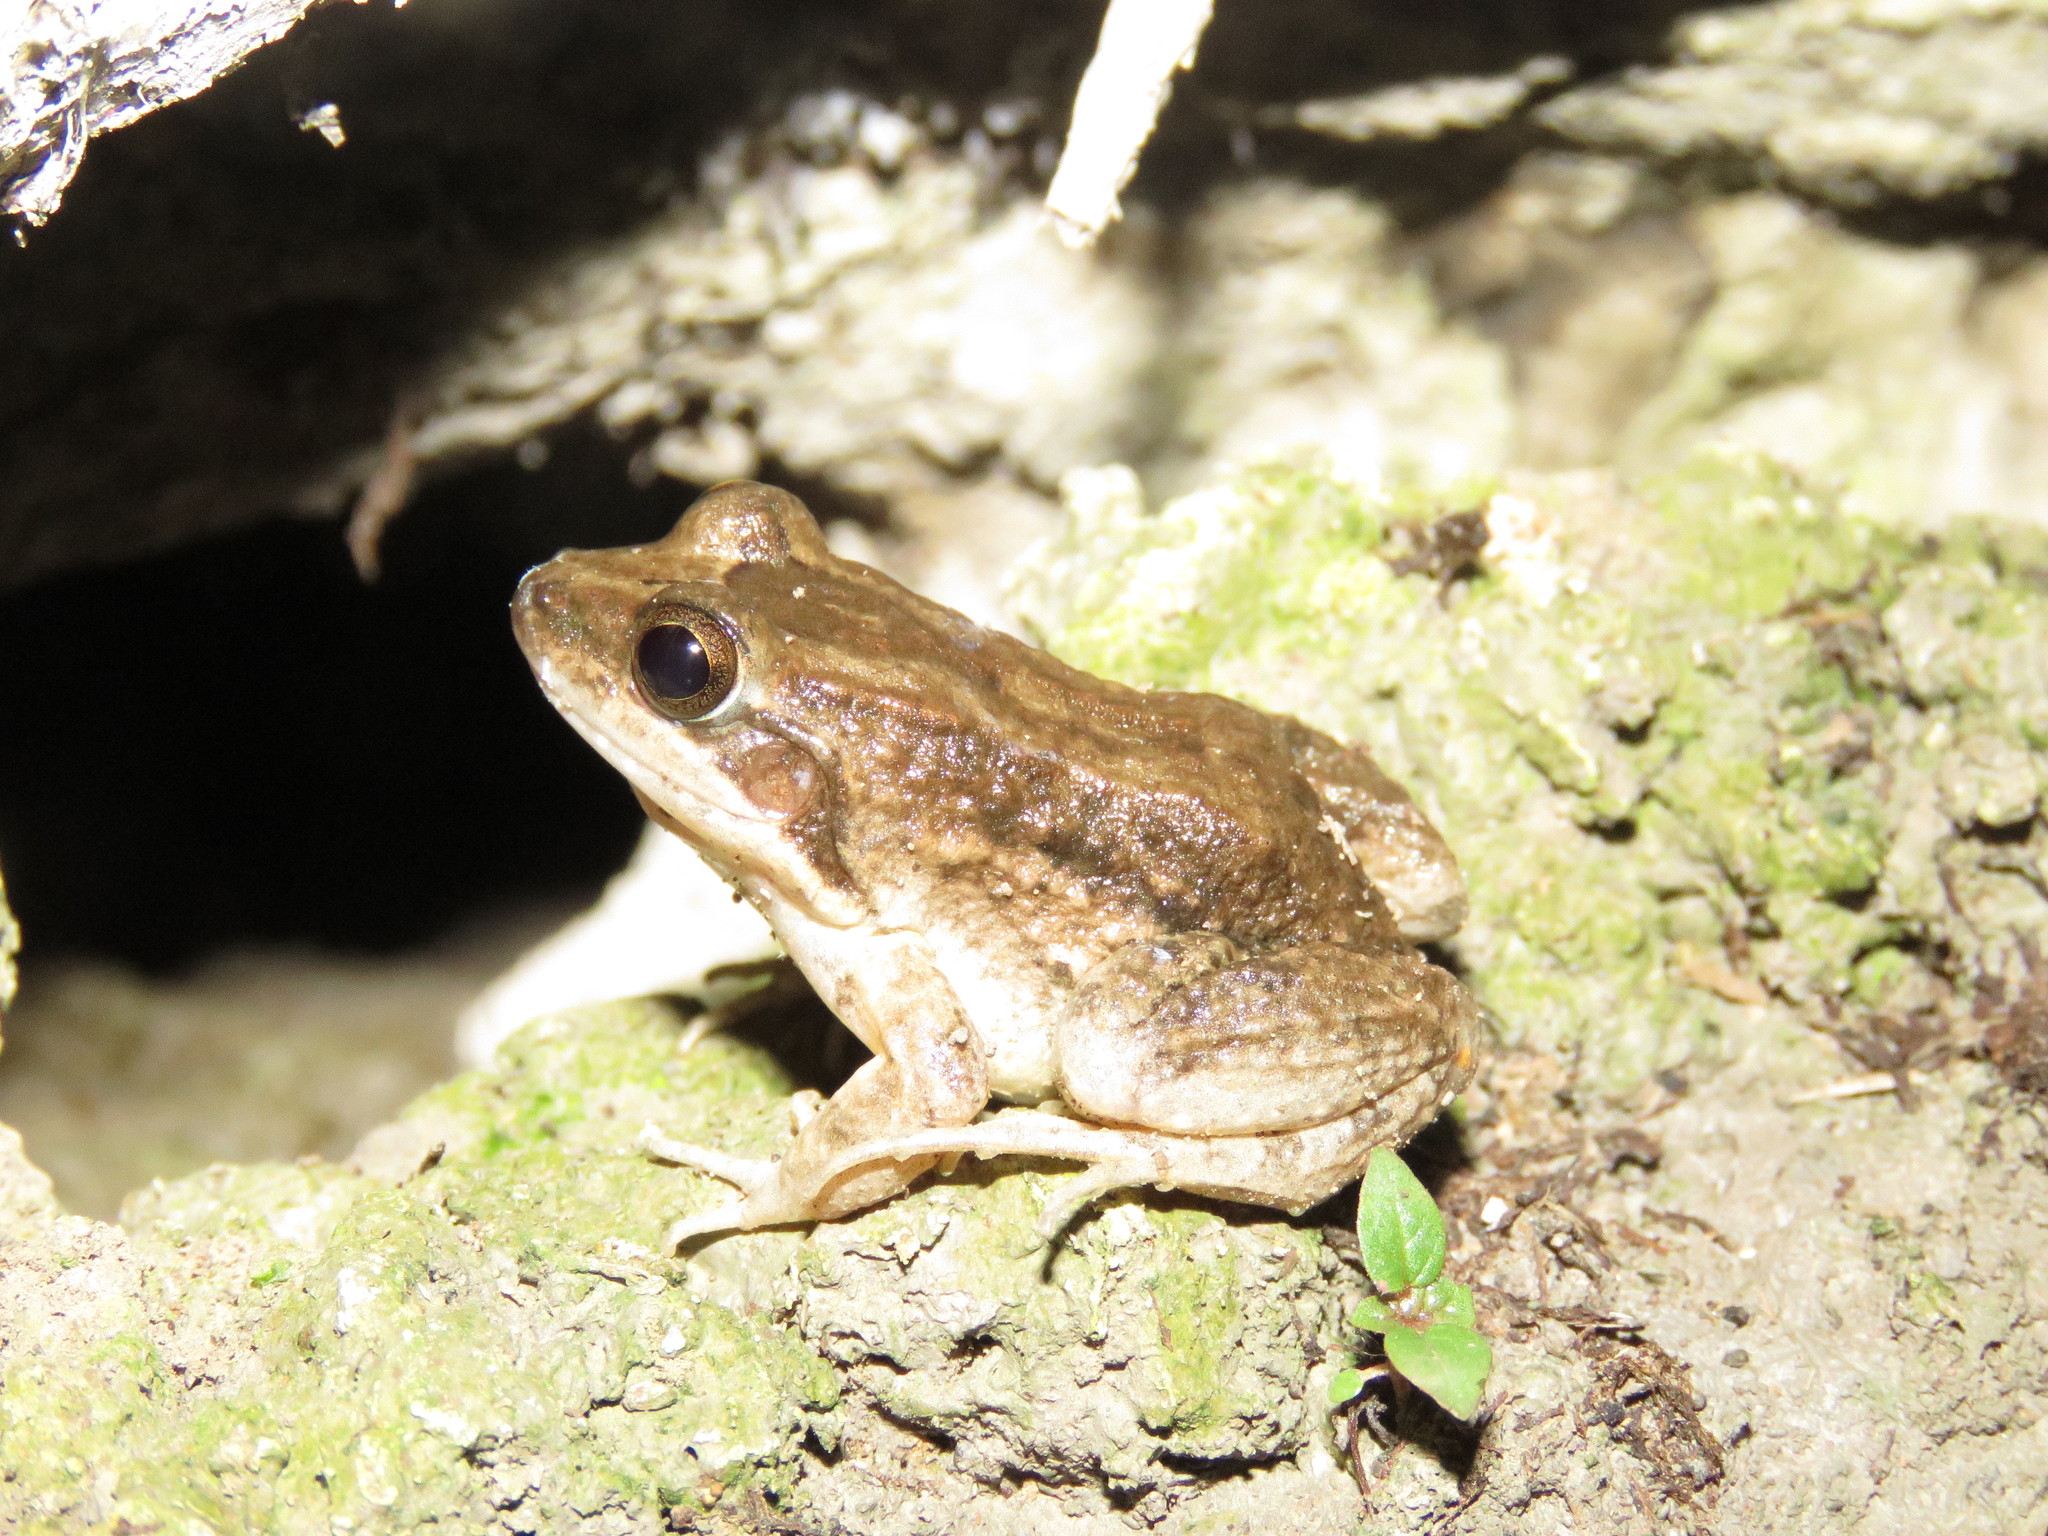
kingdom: Animalia
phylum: Chordata
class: Amphibia
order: Anura
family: Leptodactylidae
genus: Leptodactylus
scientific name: Leptodactylus petersii
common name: Peters' thin-toed frog
